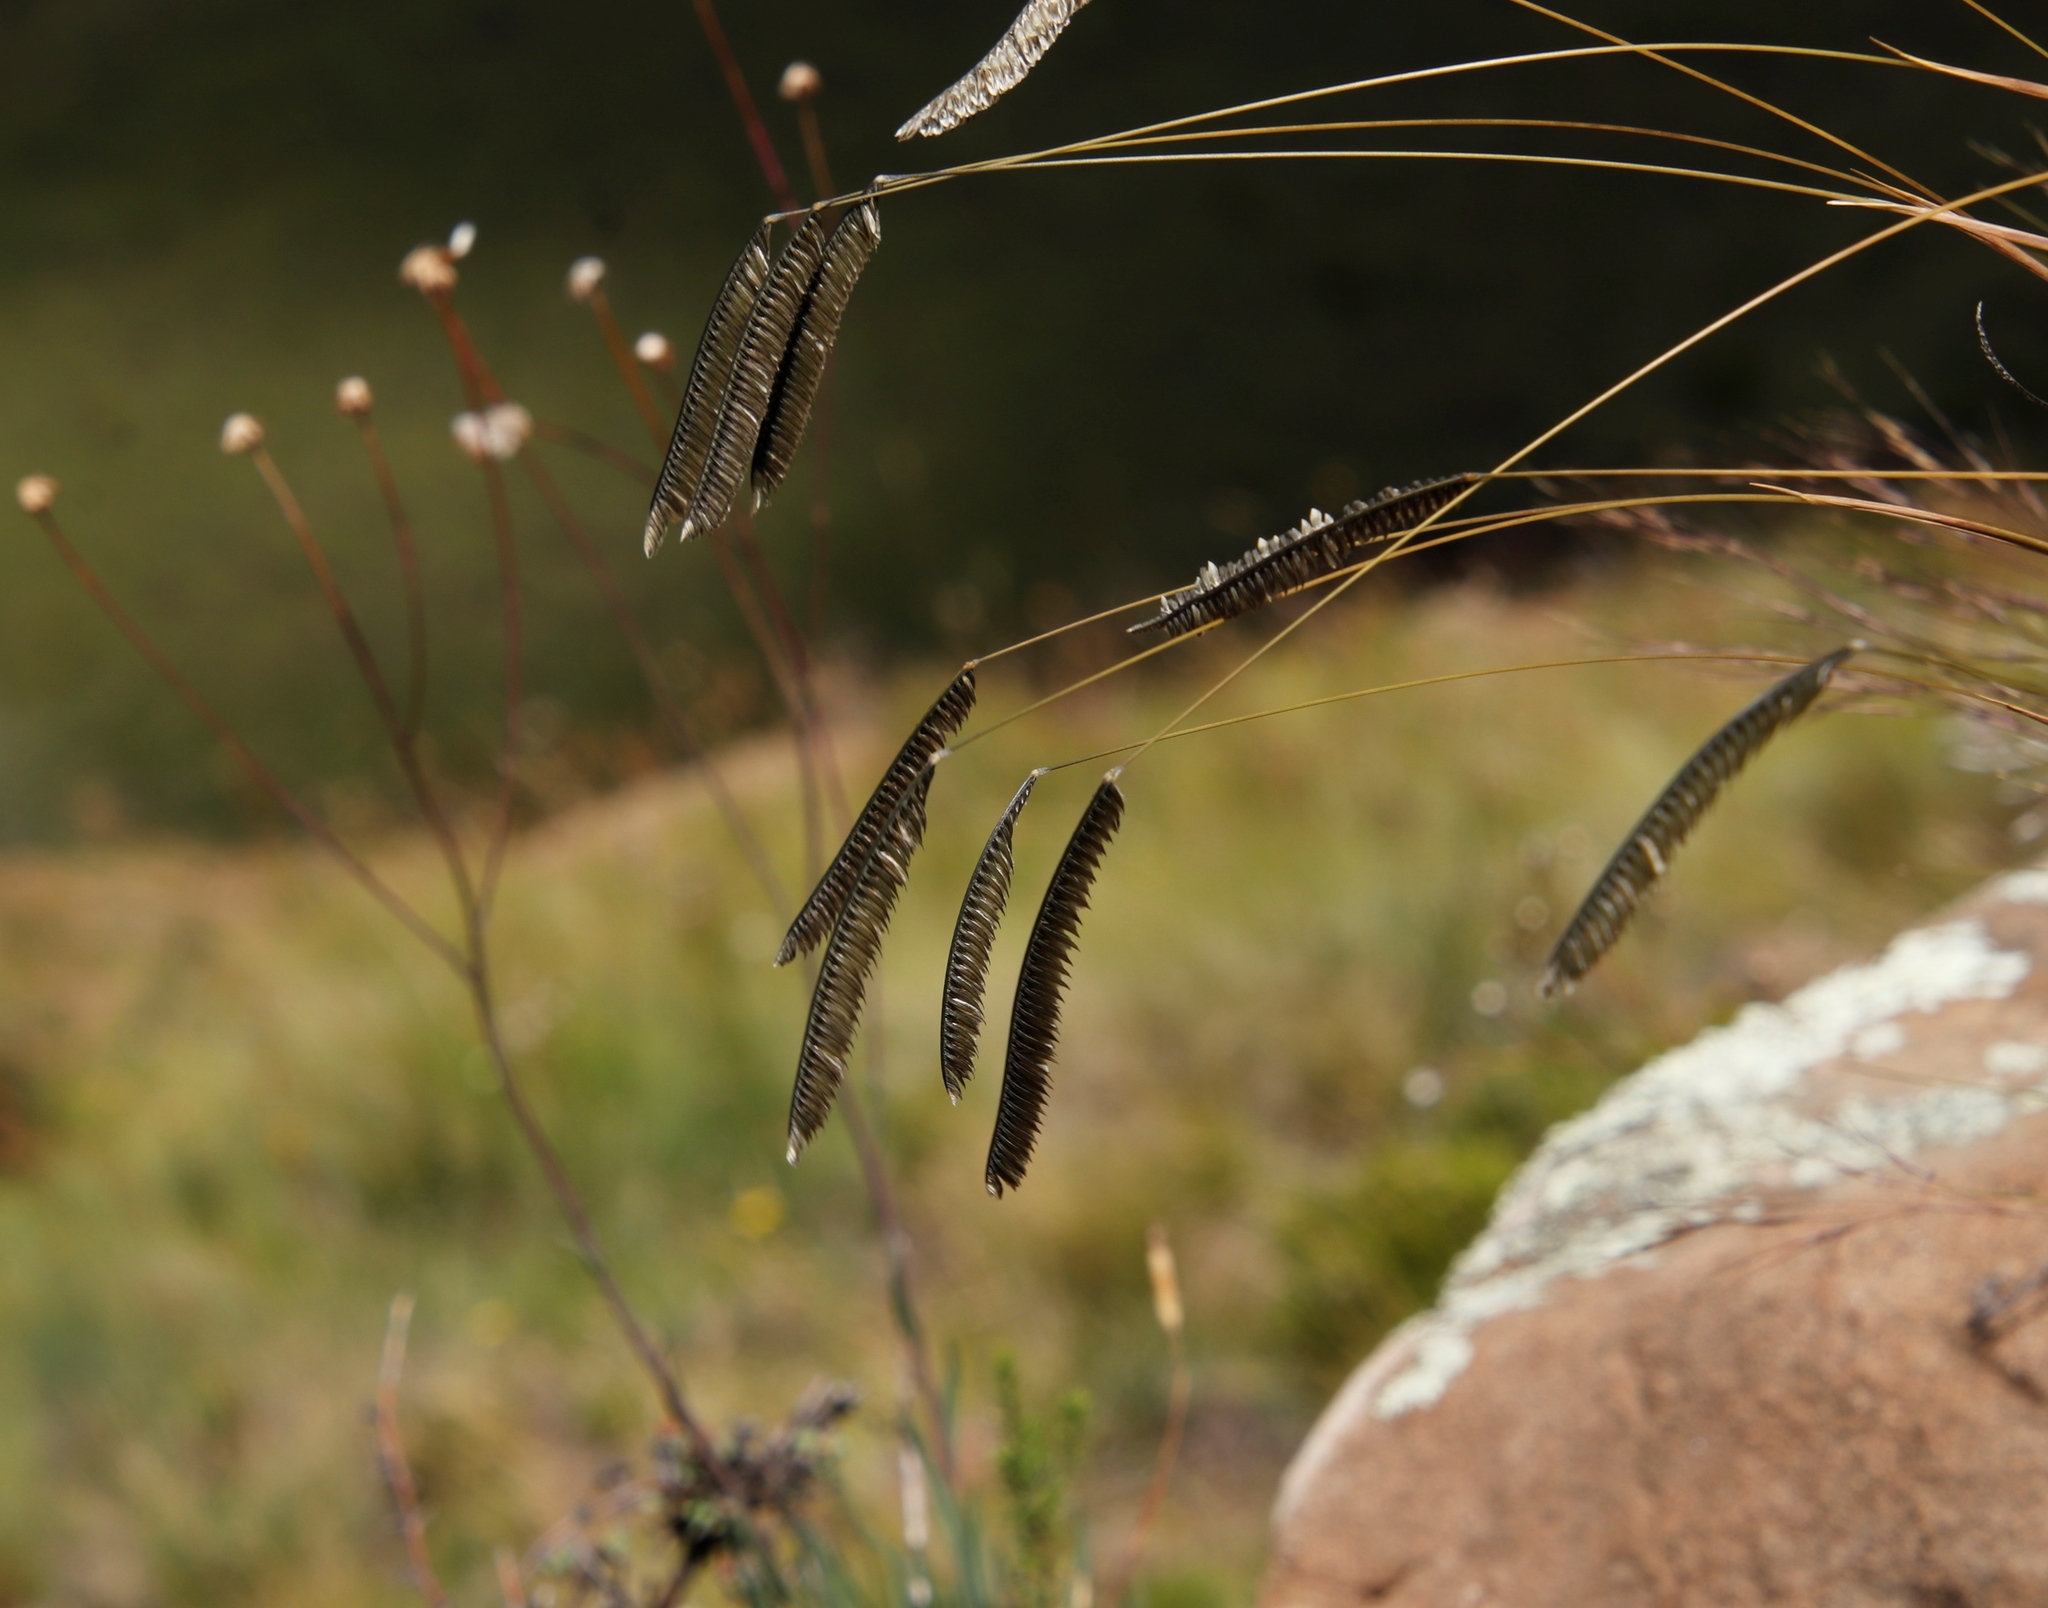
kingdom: Plantae
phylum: Tracheophyta
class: Liliopsida
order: Poales
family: Poaceae
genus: Harpochloa
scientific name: Harpochloa falx
